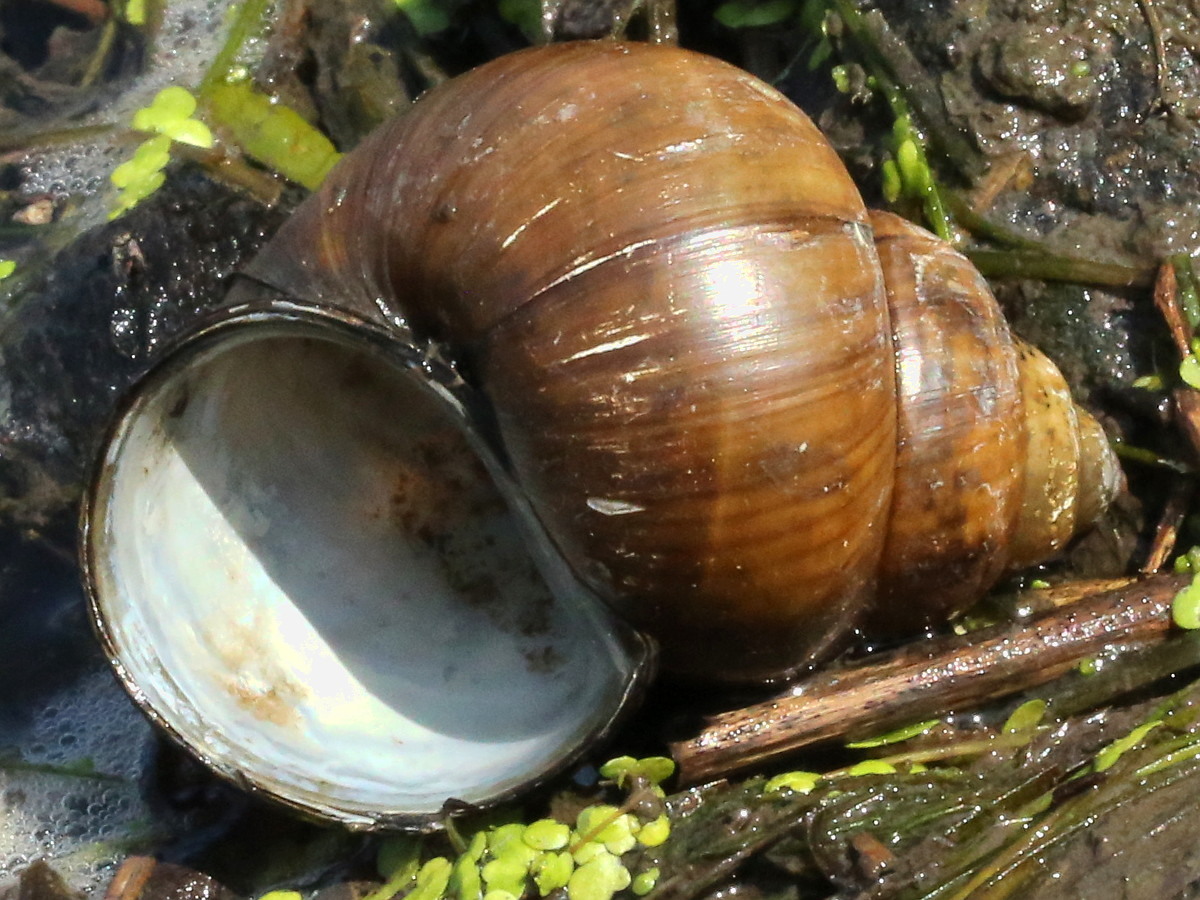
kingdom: Animalia
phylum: Mollusca
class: Gastropoda
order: Architaenioglossa
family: Viviparidae
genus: Cipangopaludina
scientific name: Cipangopaludina chinensis
